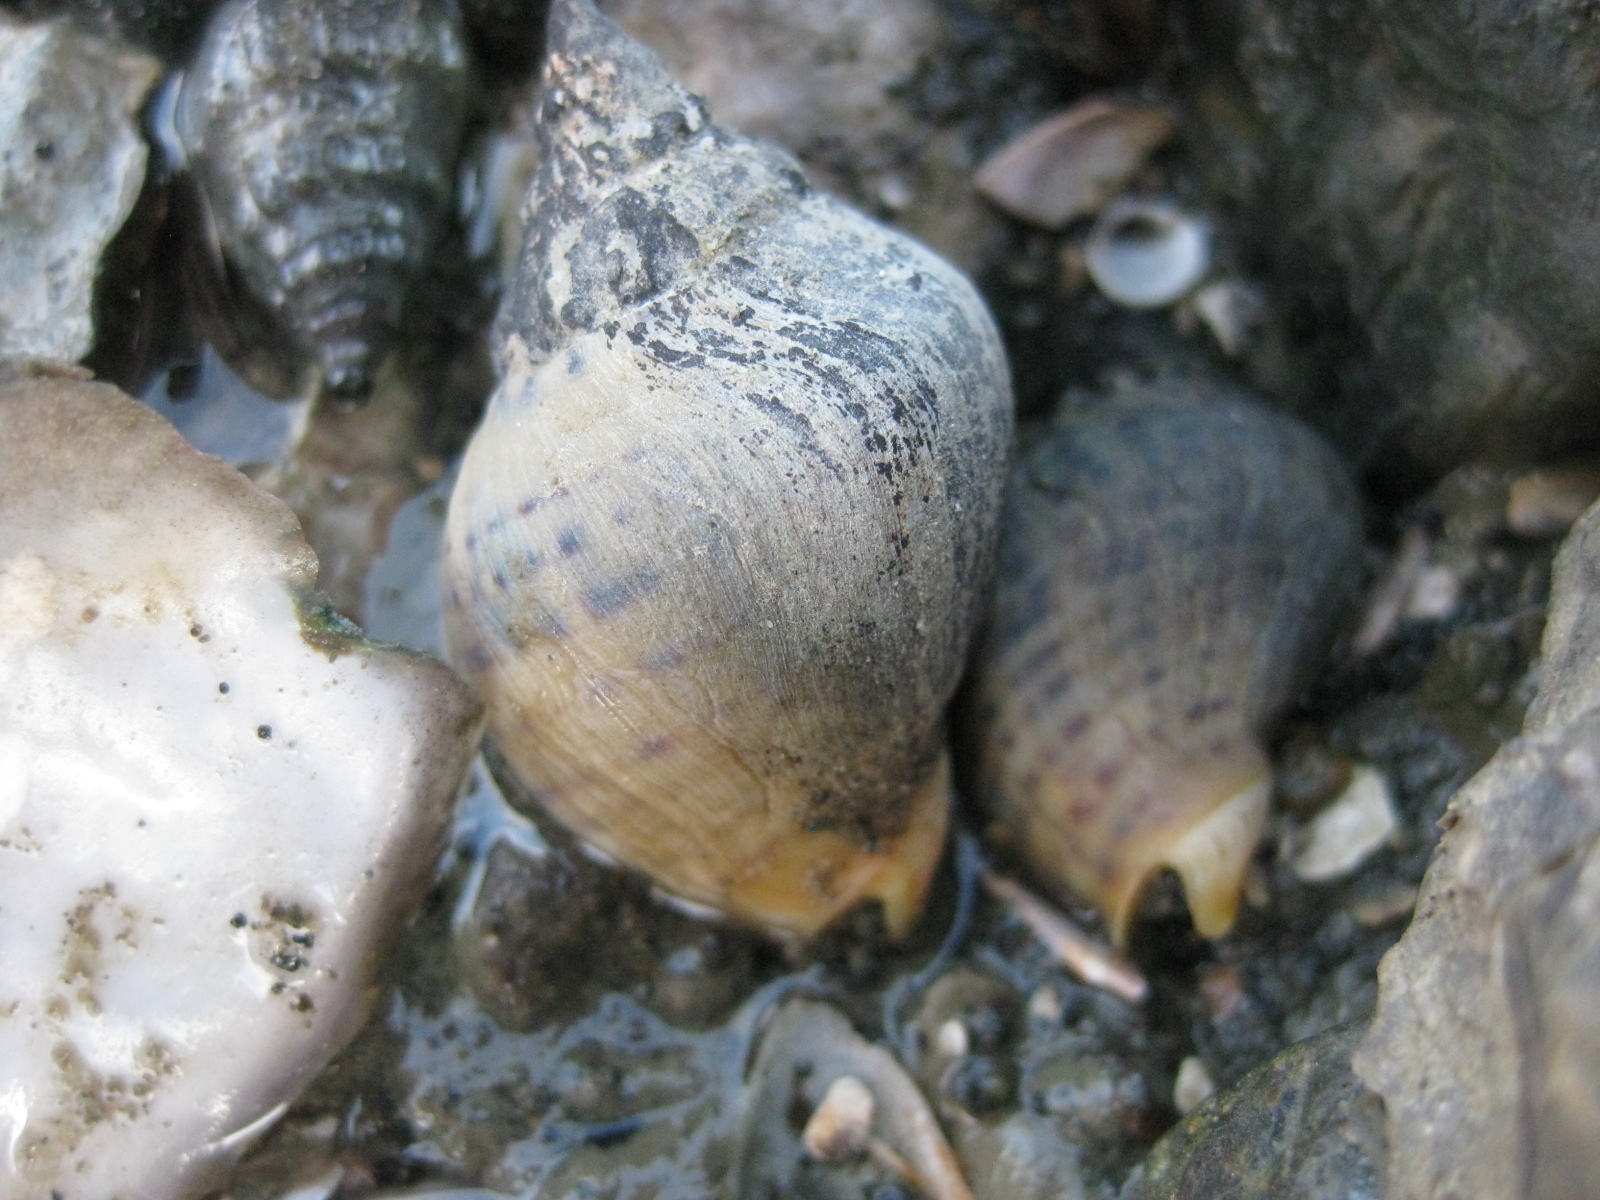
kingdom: Animalia
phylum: Mollusca
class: Gastropoda
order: Neogastropoda
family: Cominellidae
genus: Cominella
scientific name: Cominella adspersa
